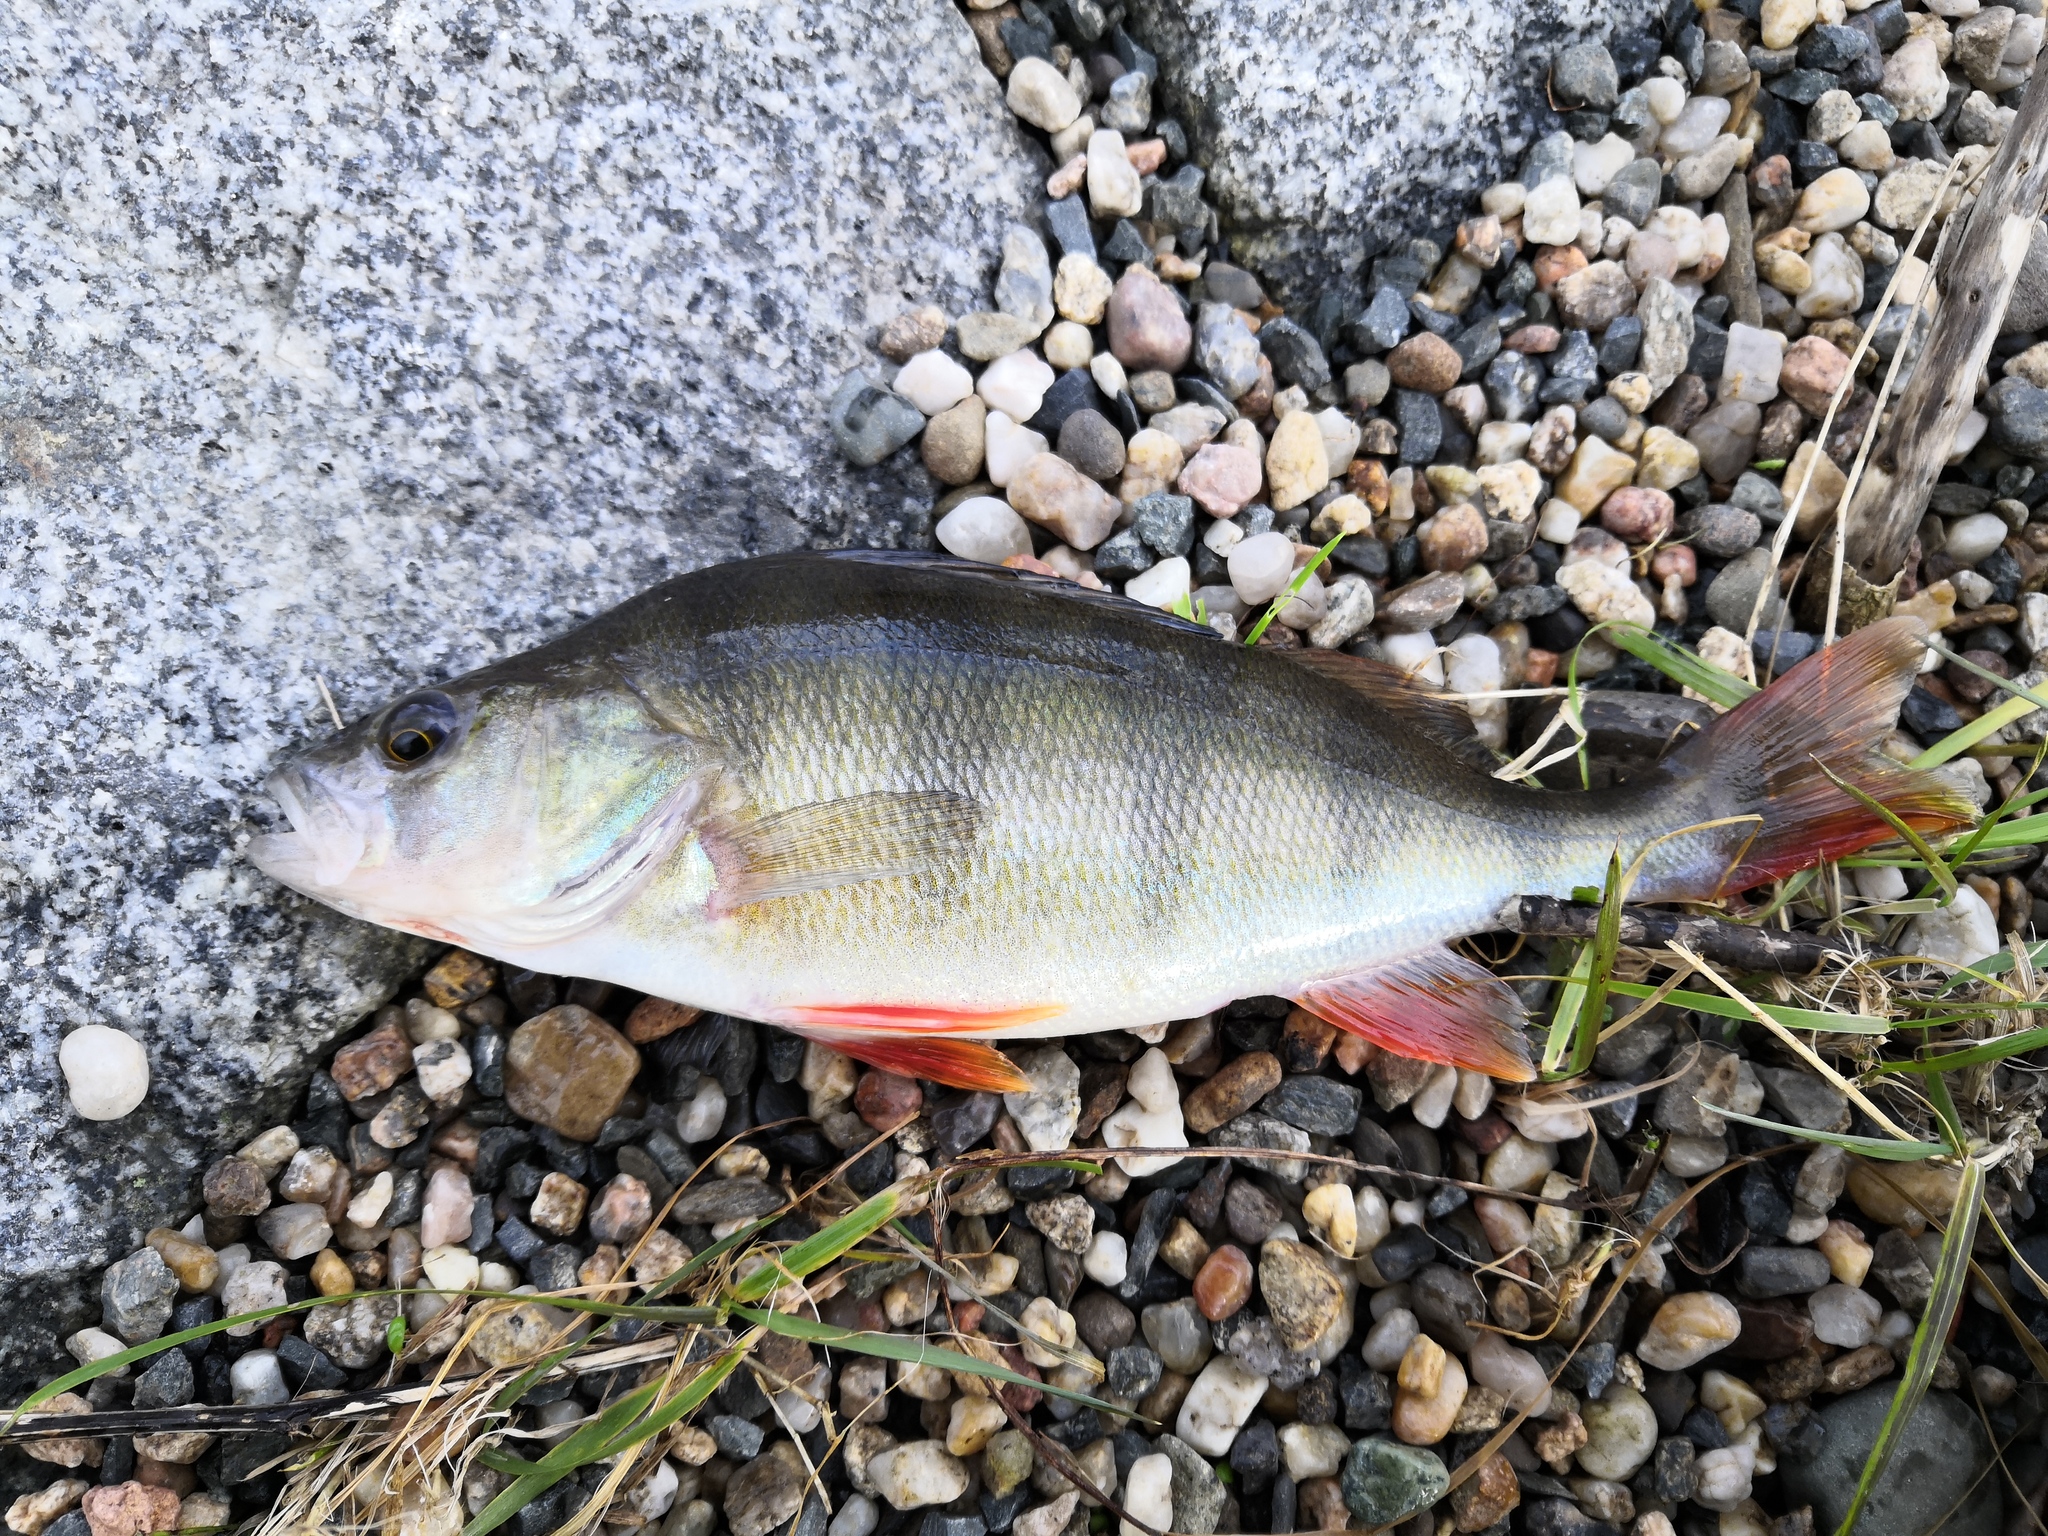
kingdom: Animalia
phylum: Chordata
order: Perciformes
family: Percidae
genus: Perca
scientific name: Perca fluviatilis
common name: Perch
